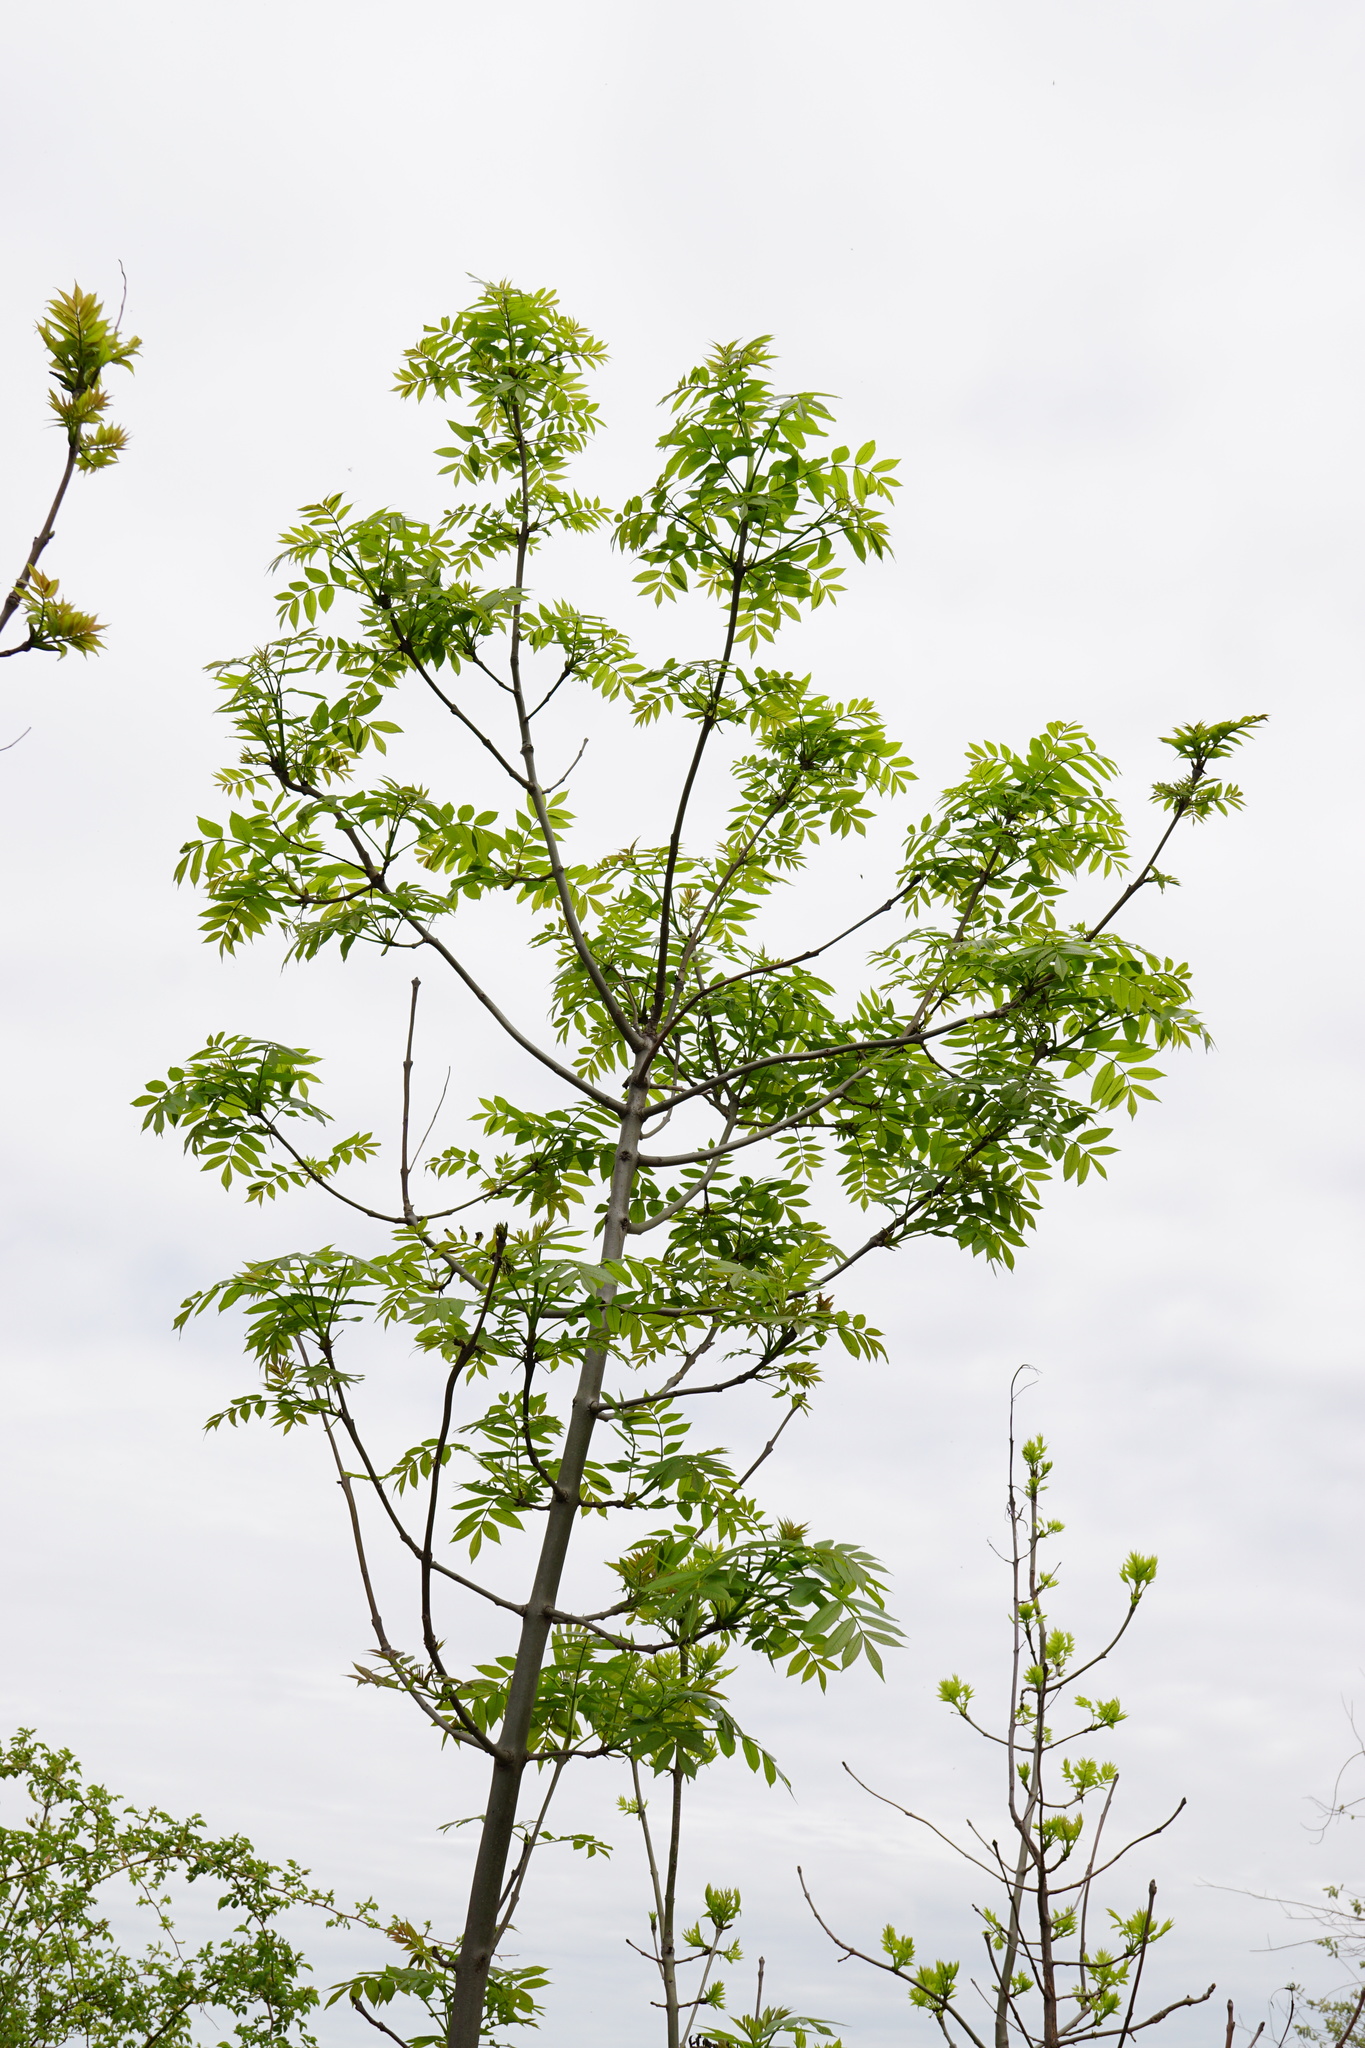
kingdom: Plantae
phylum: Tracheophyta
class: Magnoliopsida
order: Lamiales
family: Oleaceae
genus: Fraxinus
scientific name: Fraxinus excelsior
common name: European ash
